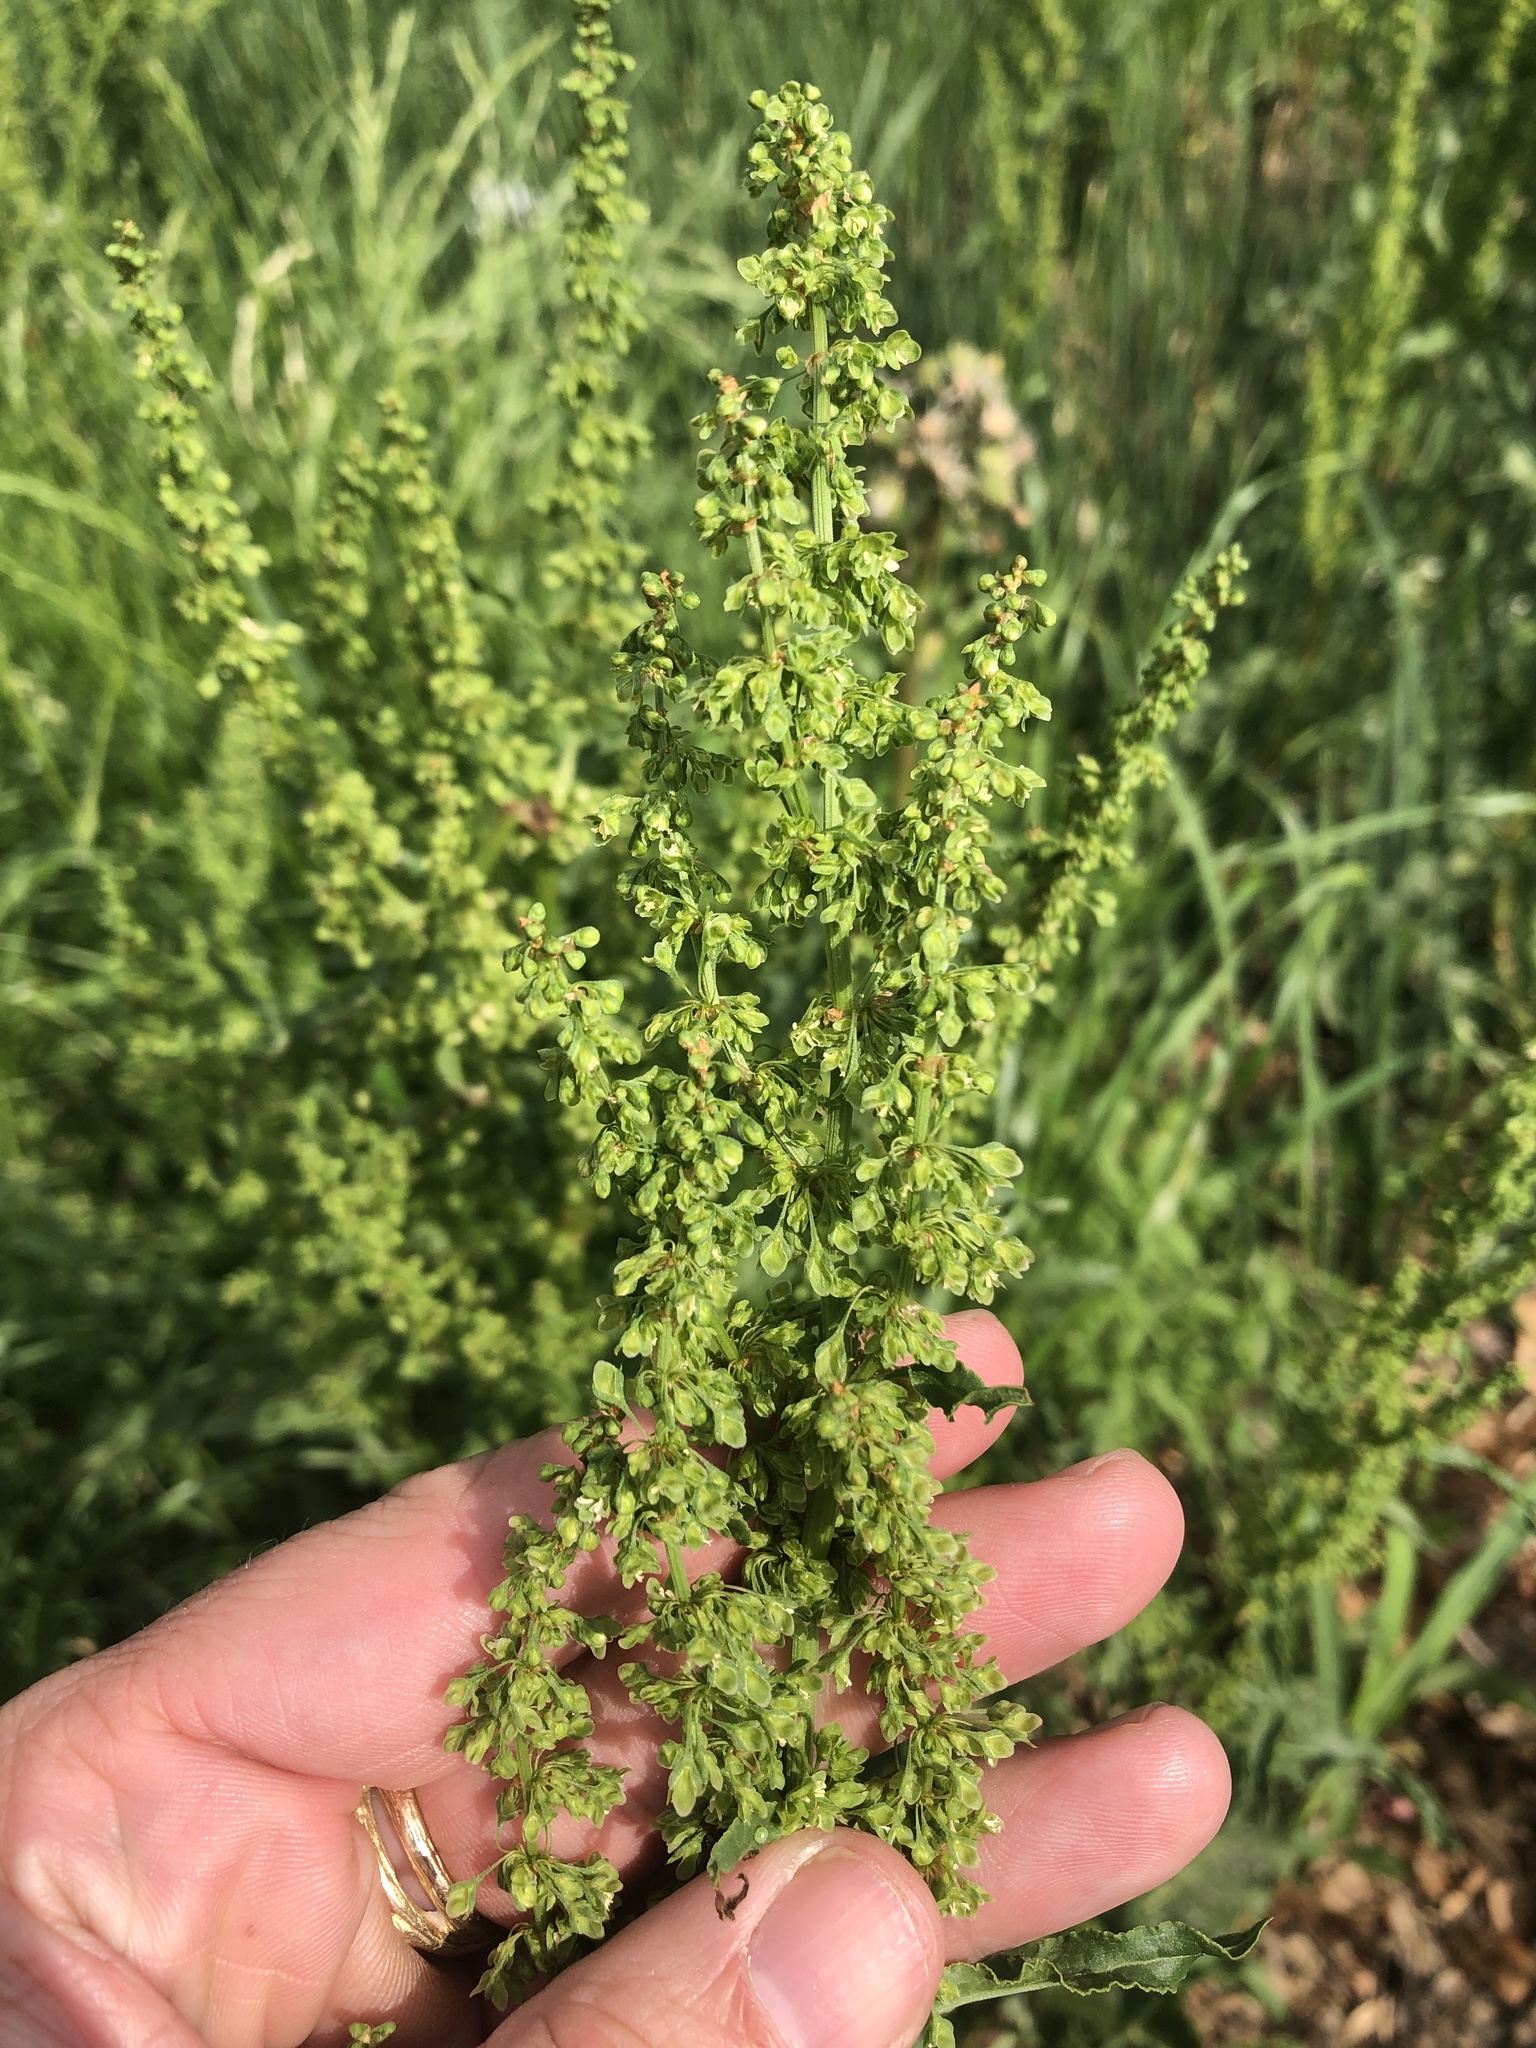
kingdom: Plantae
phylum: Tracheophyta
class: Magnoliopsida
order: Caryophyllales
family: Polygonaceae
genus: Rumex
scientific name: Rumex crispus
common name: Curled dock
